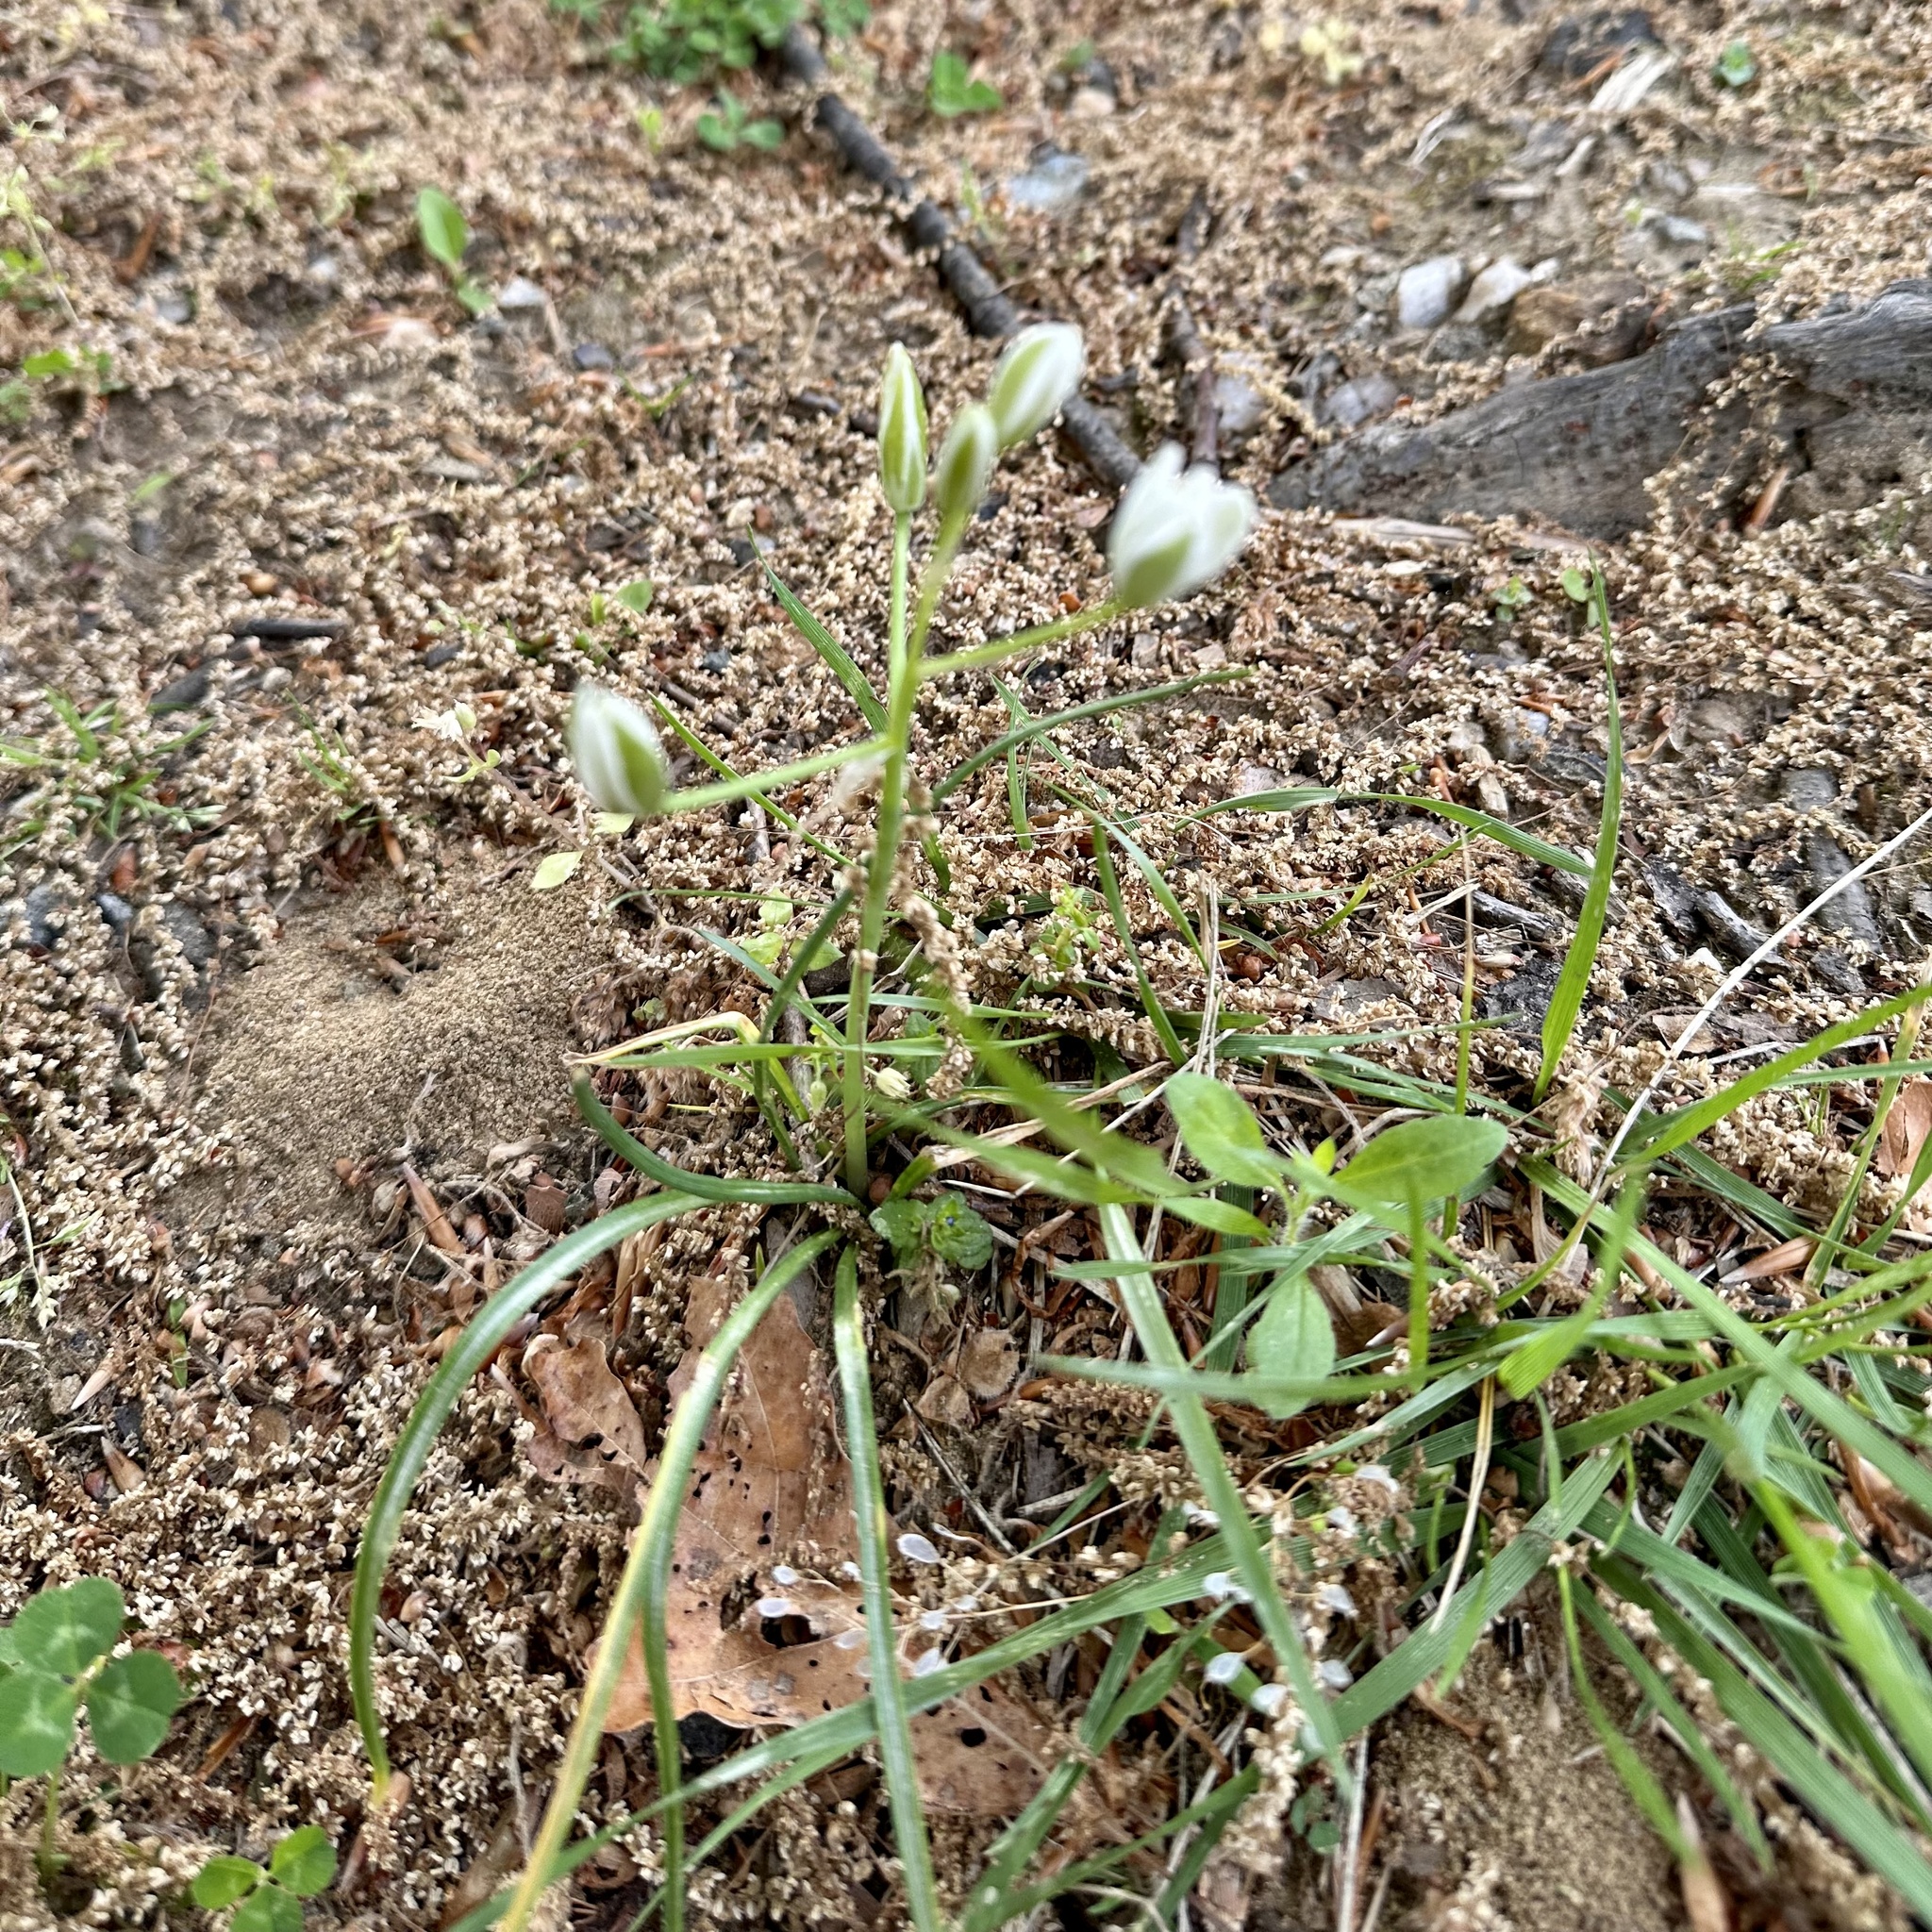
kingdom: Plantae
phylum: Tracheophyta
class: Liliopsida
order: Asparagales
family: Asparagaceae
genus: Ornithogalum
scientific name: Ornithogalum umbellatum
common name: Garden star-of-bethlehem
